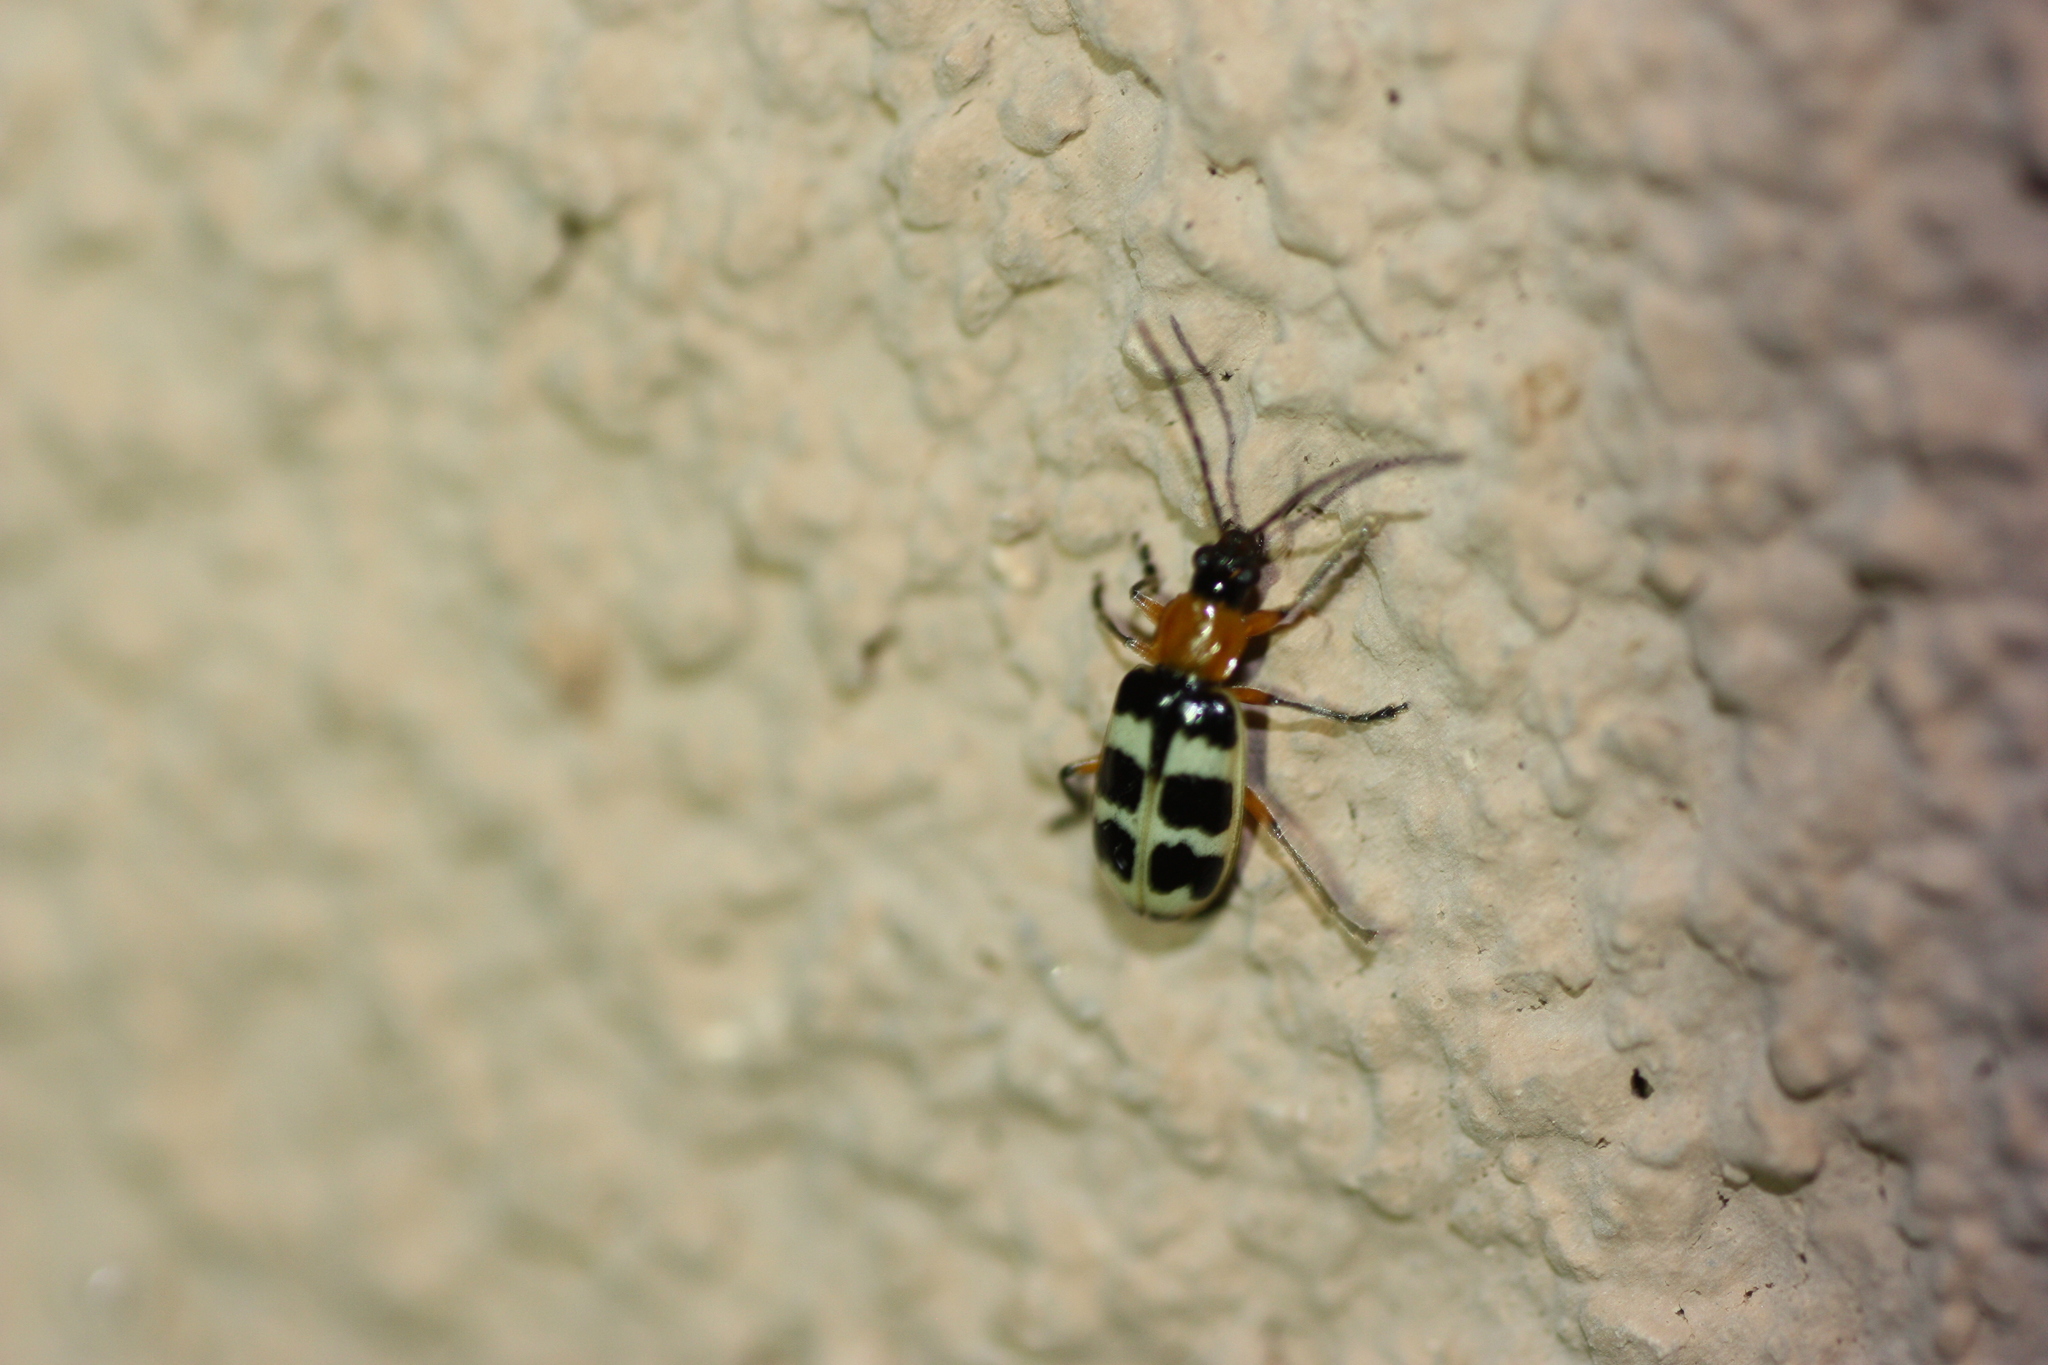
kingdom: Animalia
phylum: Arthropoda
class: Insecta
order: Coleoptera
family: Chrysomelidae
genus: Paranapiacaba
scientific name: Paranapiacaba tricincta
